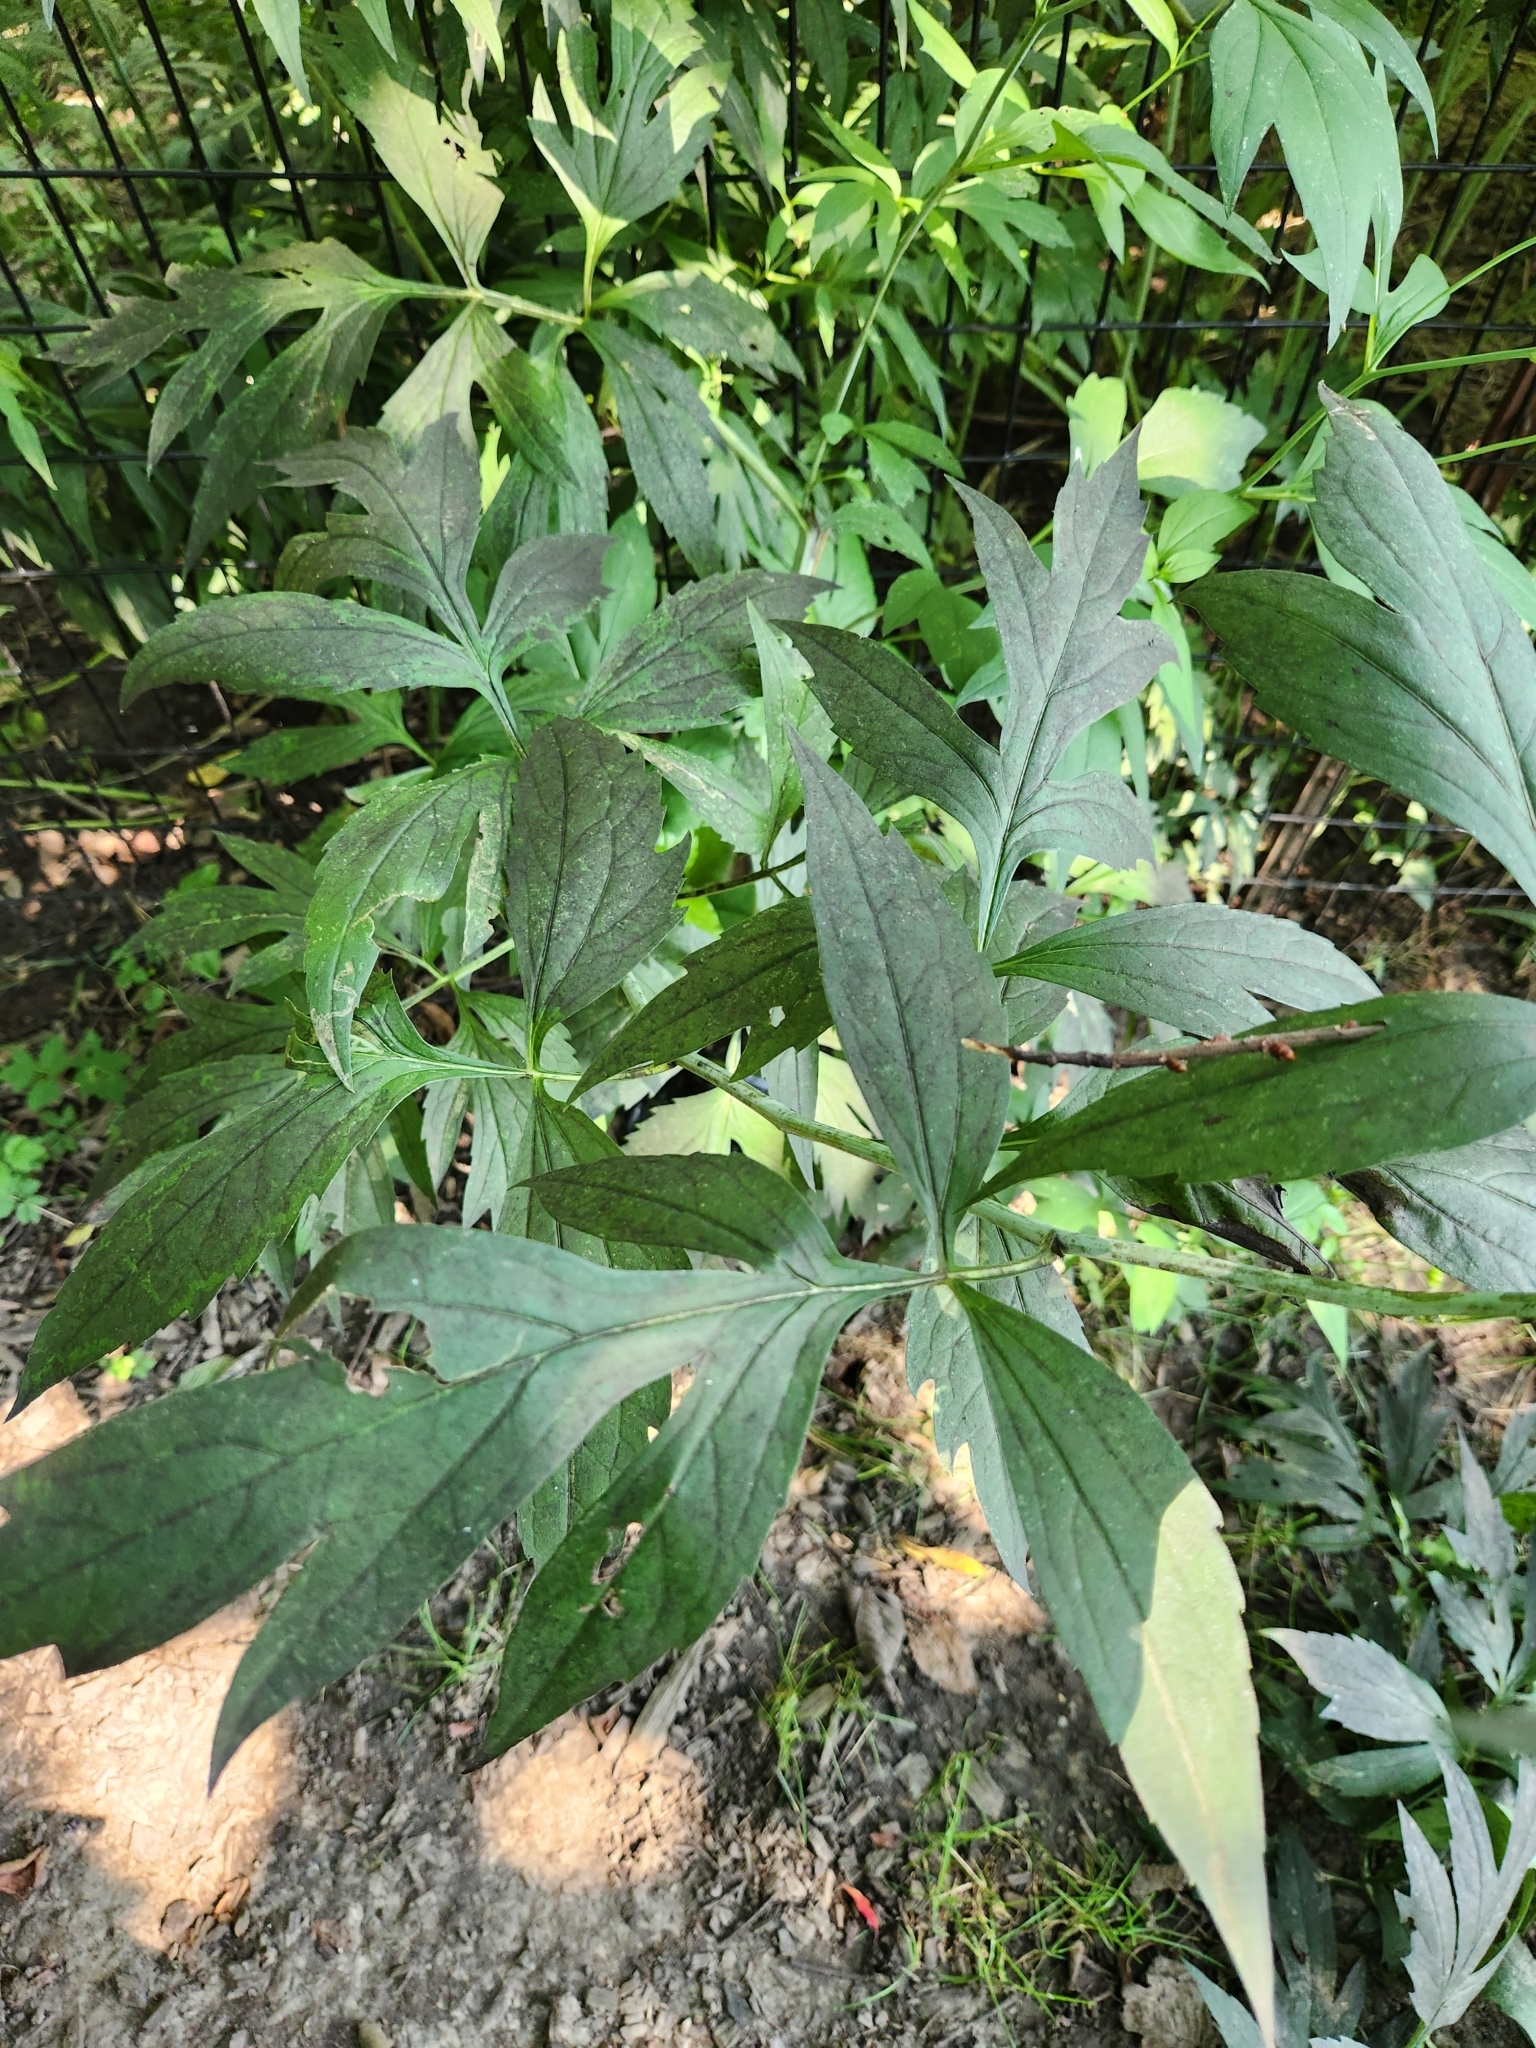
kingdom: Plantae
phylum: Tracheophyta
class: Magnoliopsida
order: Asterales
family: Asteraceae
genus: Rudbeckia
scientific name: Rudbeckia laciniata
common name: Coneflower
